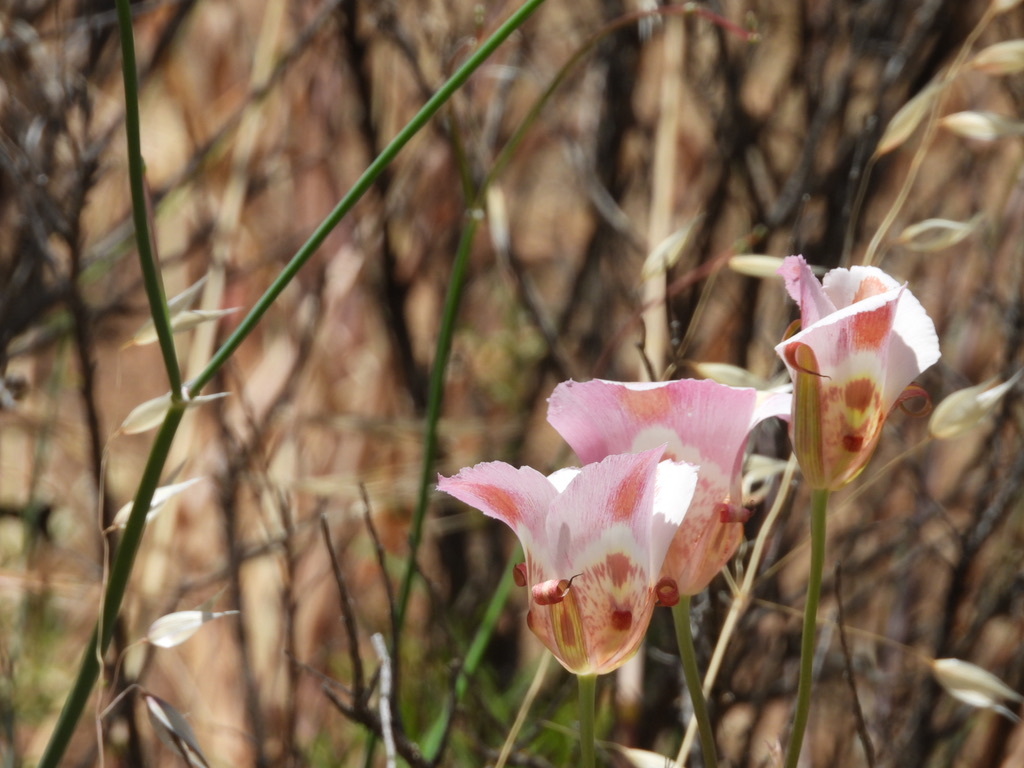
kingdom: Plantae
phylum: Tracheophyta
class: Liliopsida
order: Liliales
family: Liliaceae
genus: Calochortus
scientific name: Calochortus venustus
